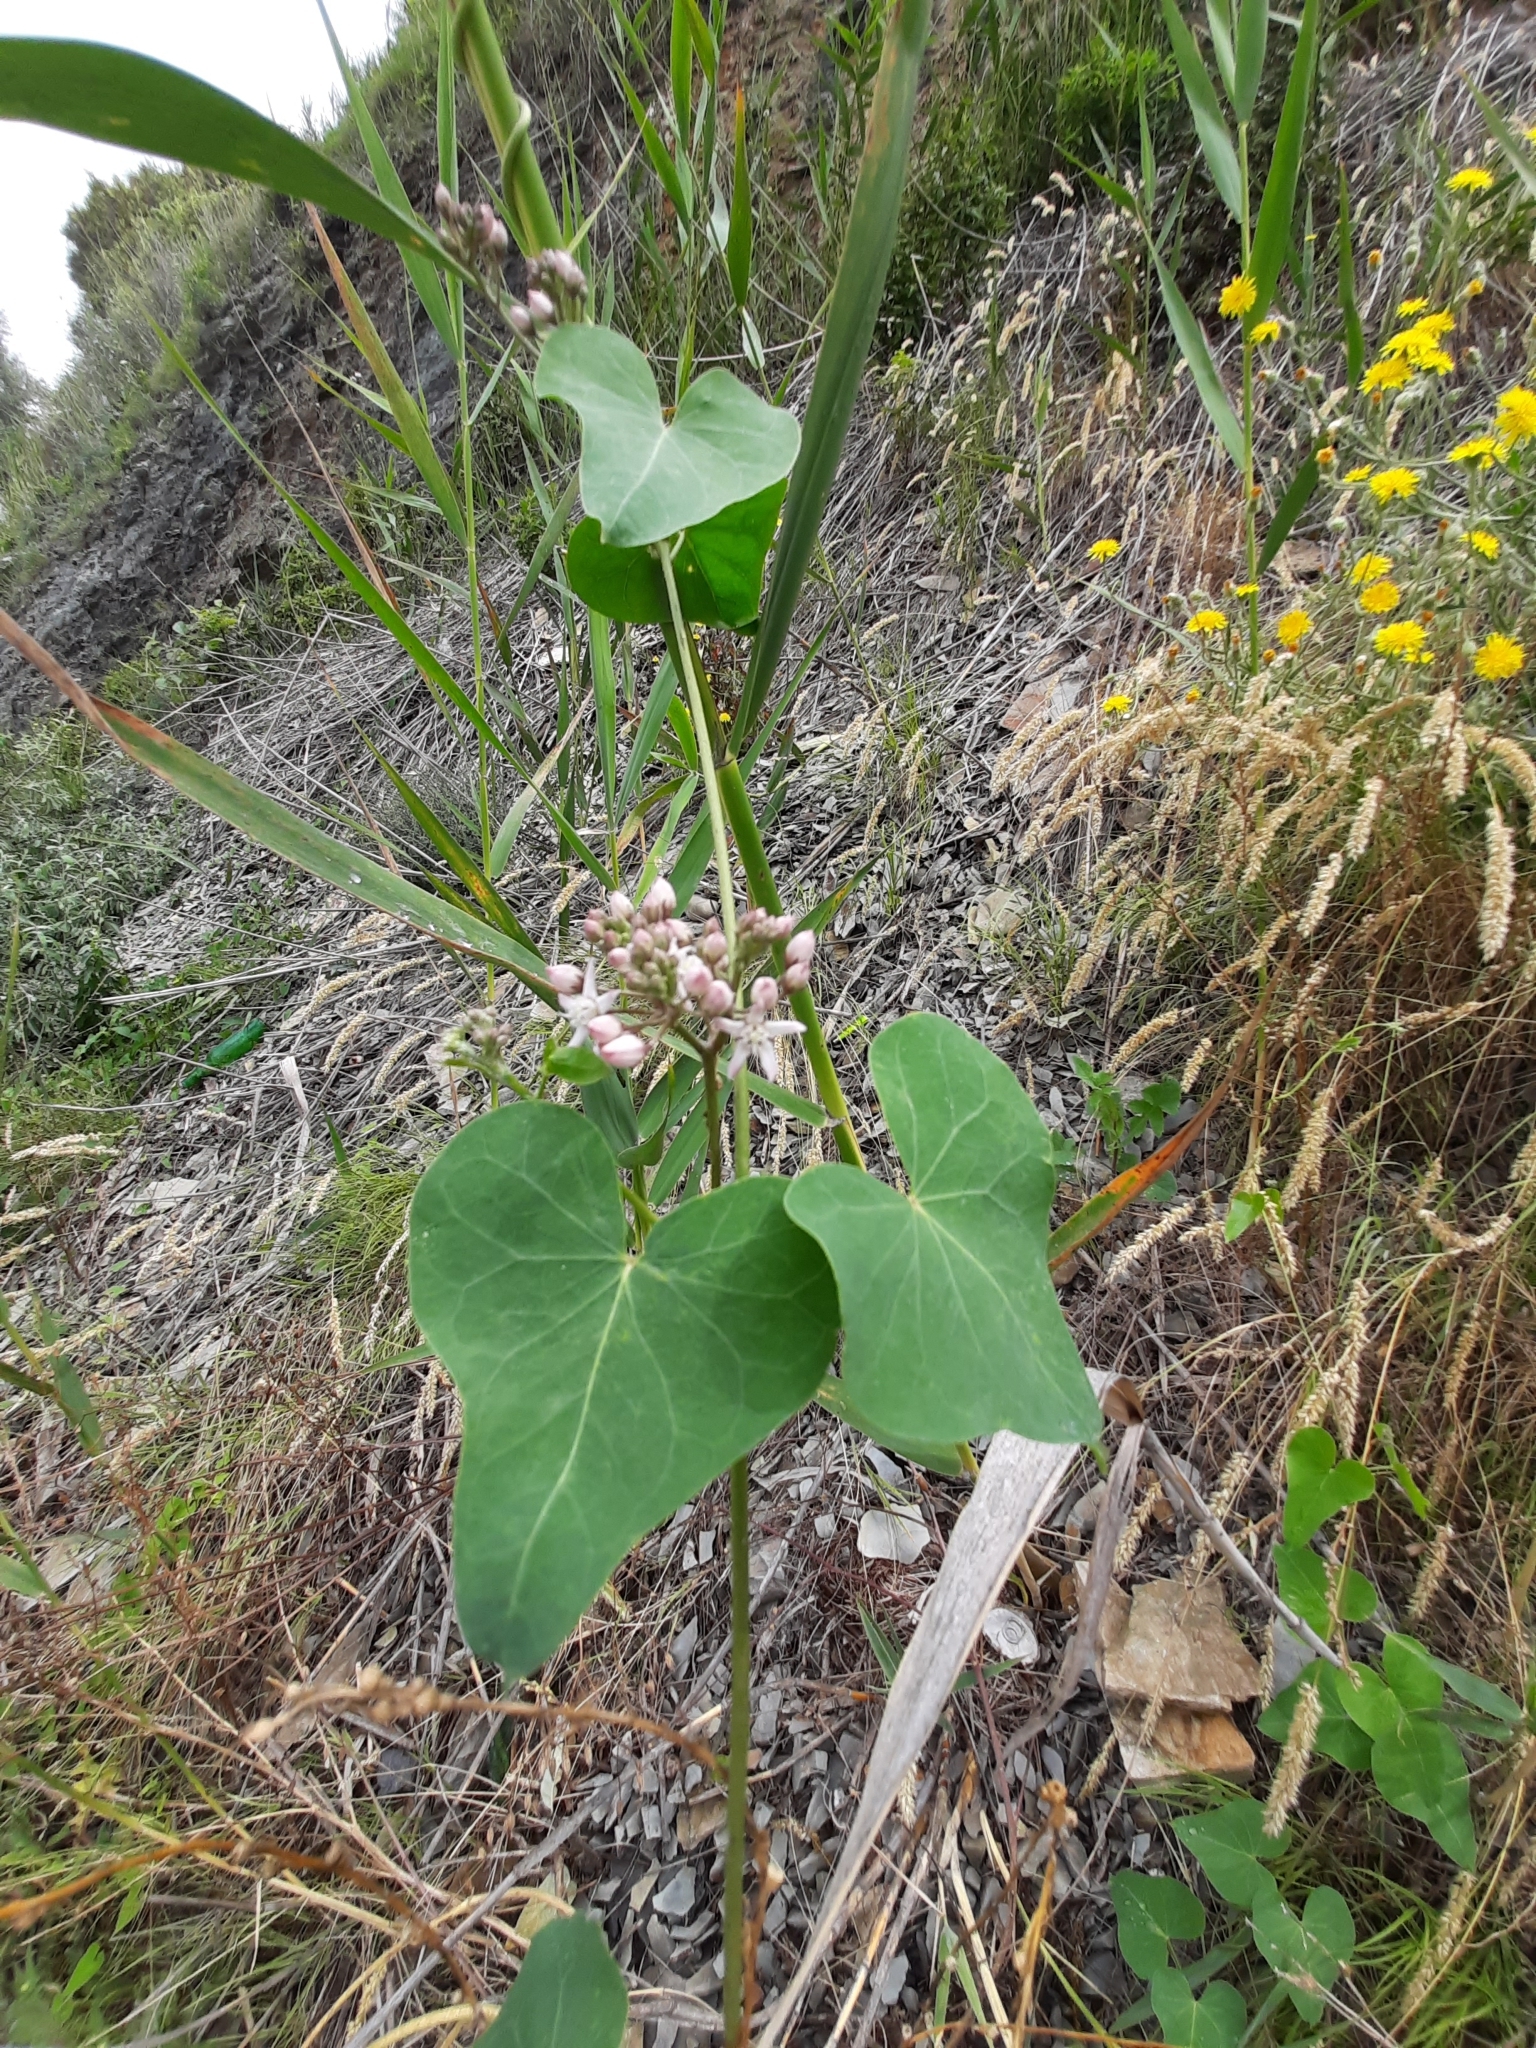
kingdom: Plantae
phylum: Tracheophyta
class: Magnoliopsida
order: Gentianales
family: Apocynaceae
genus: Cynanchum
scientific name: Cynanchum acutum
